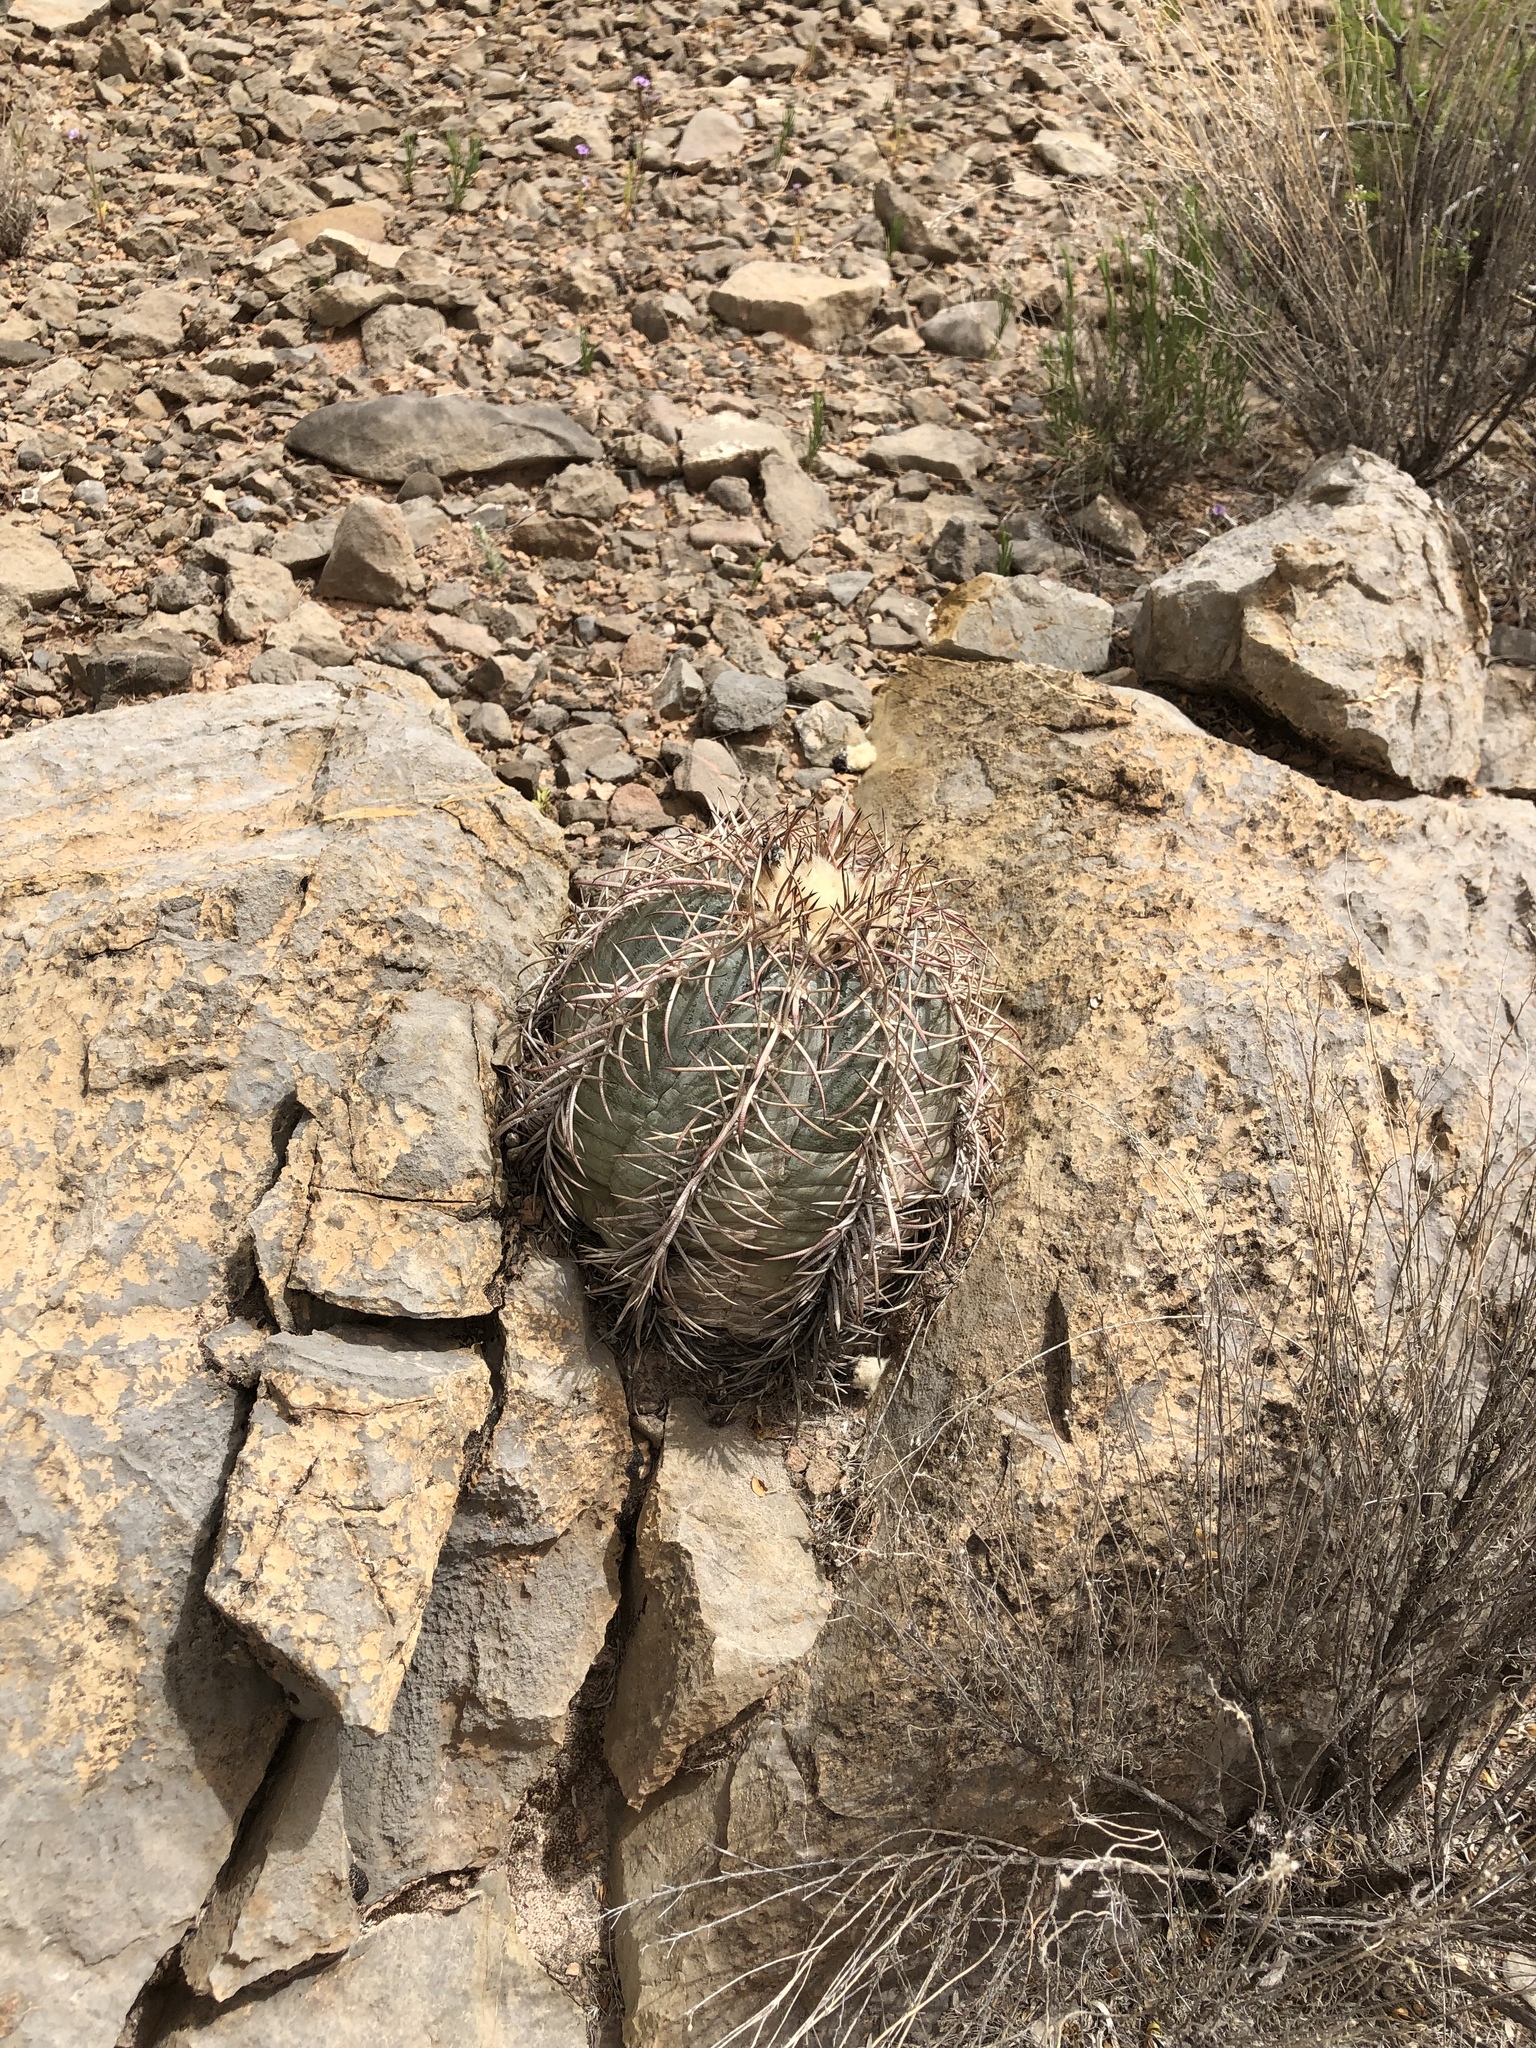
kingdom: Plantae
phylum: Tracheophyta
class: Magnoliopsida
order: Caryophyllales
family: Cactaceae
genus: Echinocactus
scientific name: Echinocactus horizonthalonius
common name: Devilshead
